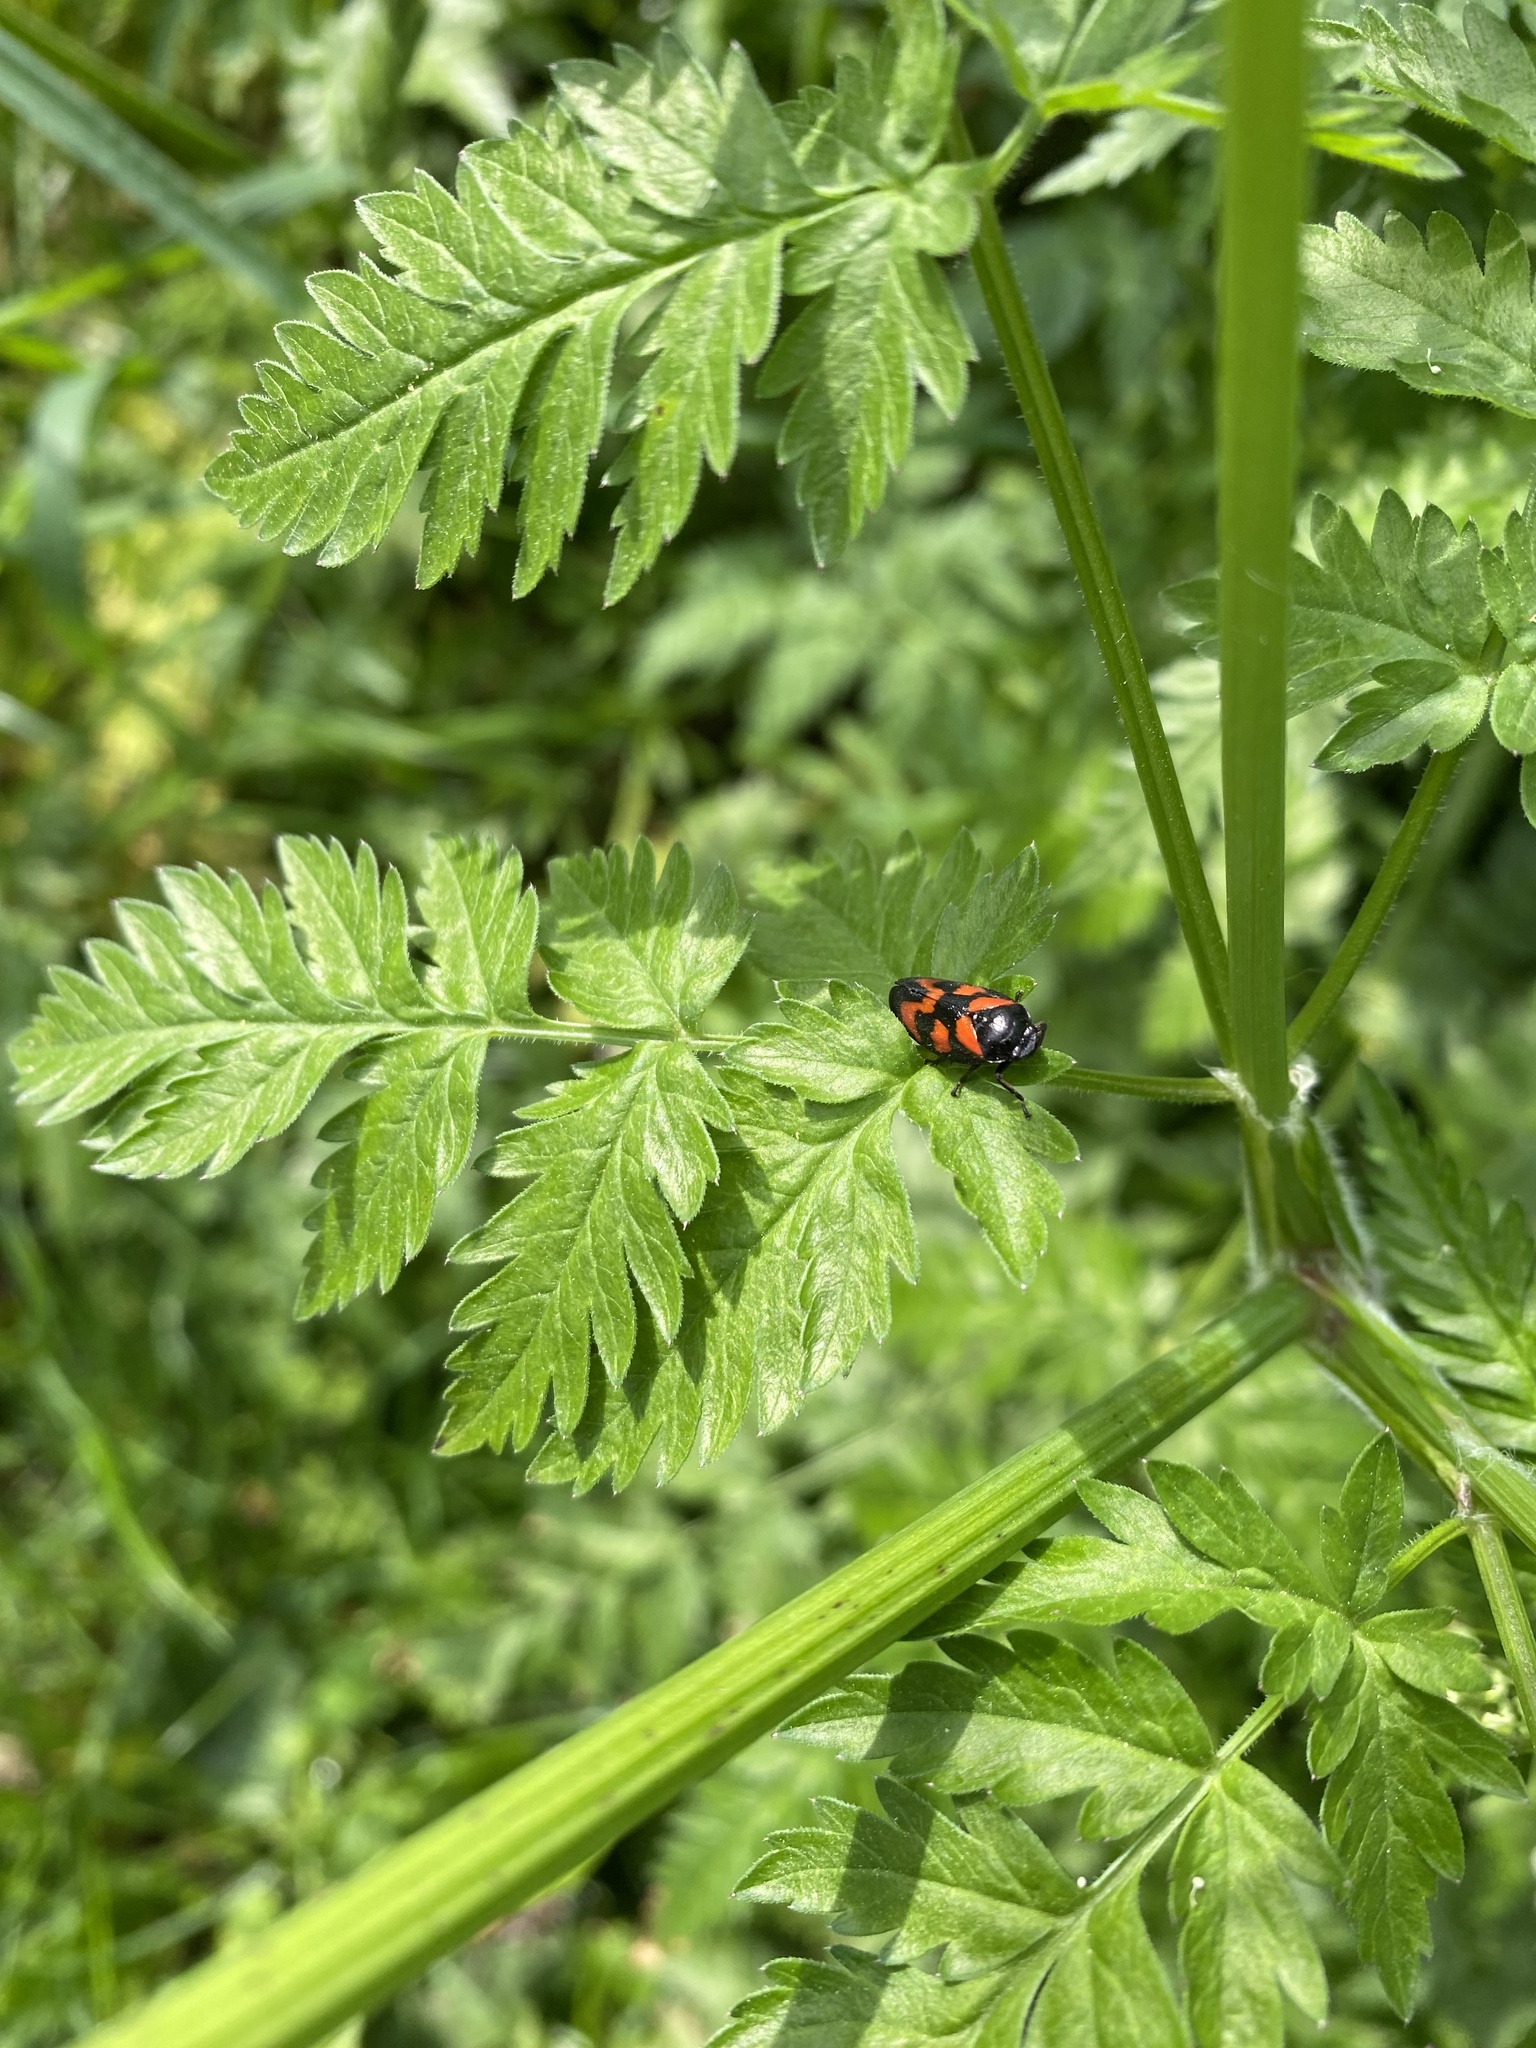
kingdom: Animalia
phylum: Arthropoda
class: Insecta
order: Hemiptera
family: Cercopidae
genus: Cercopis
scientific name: Cercopis vulnerata
